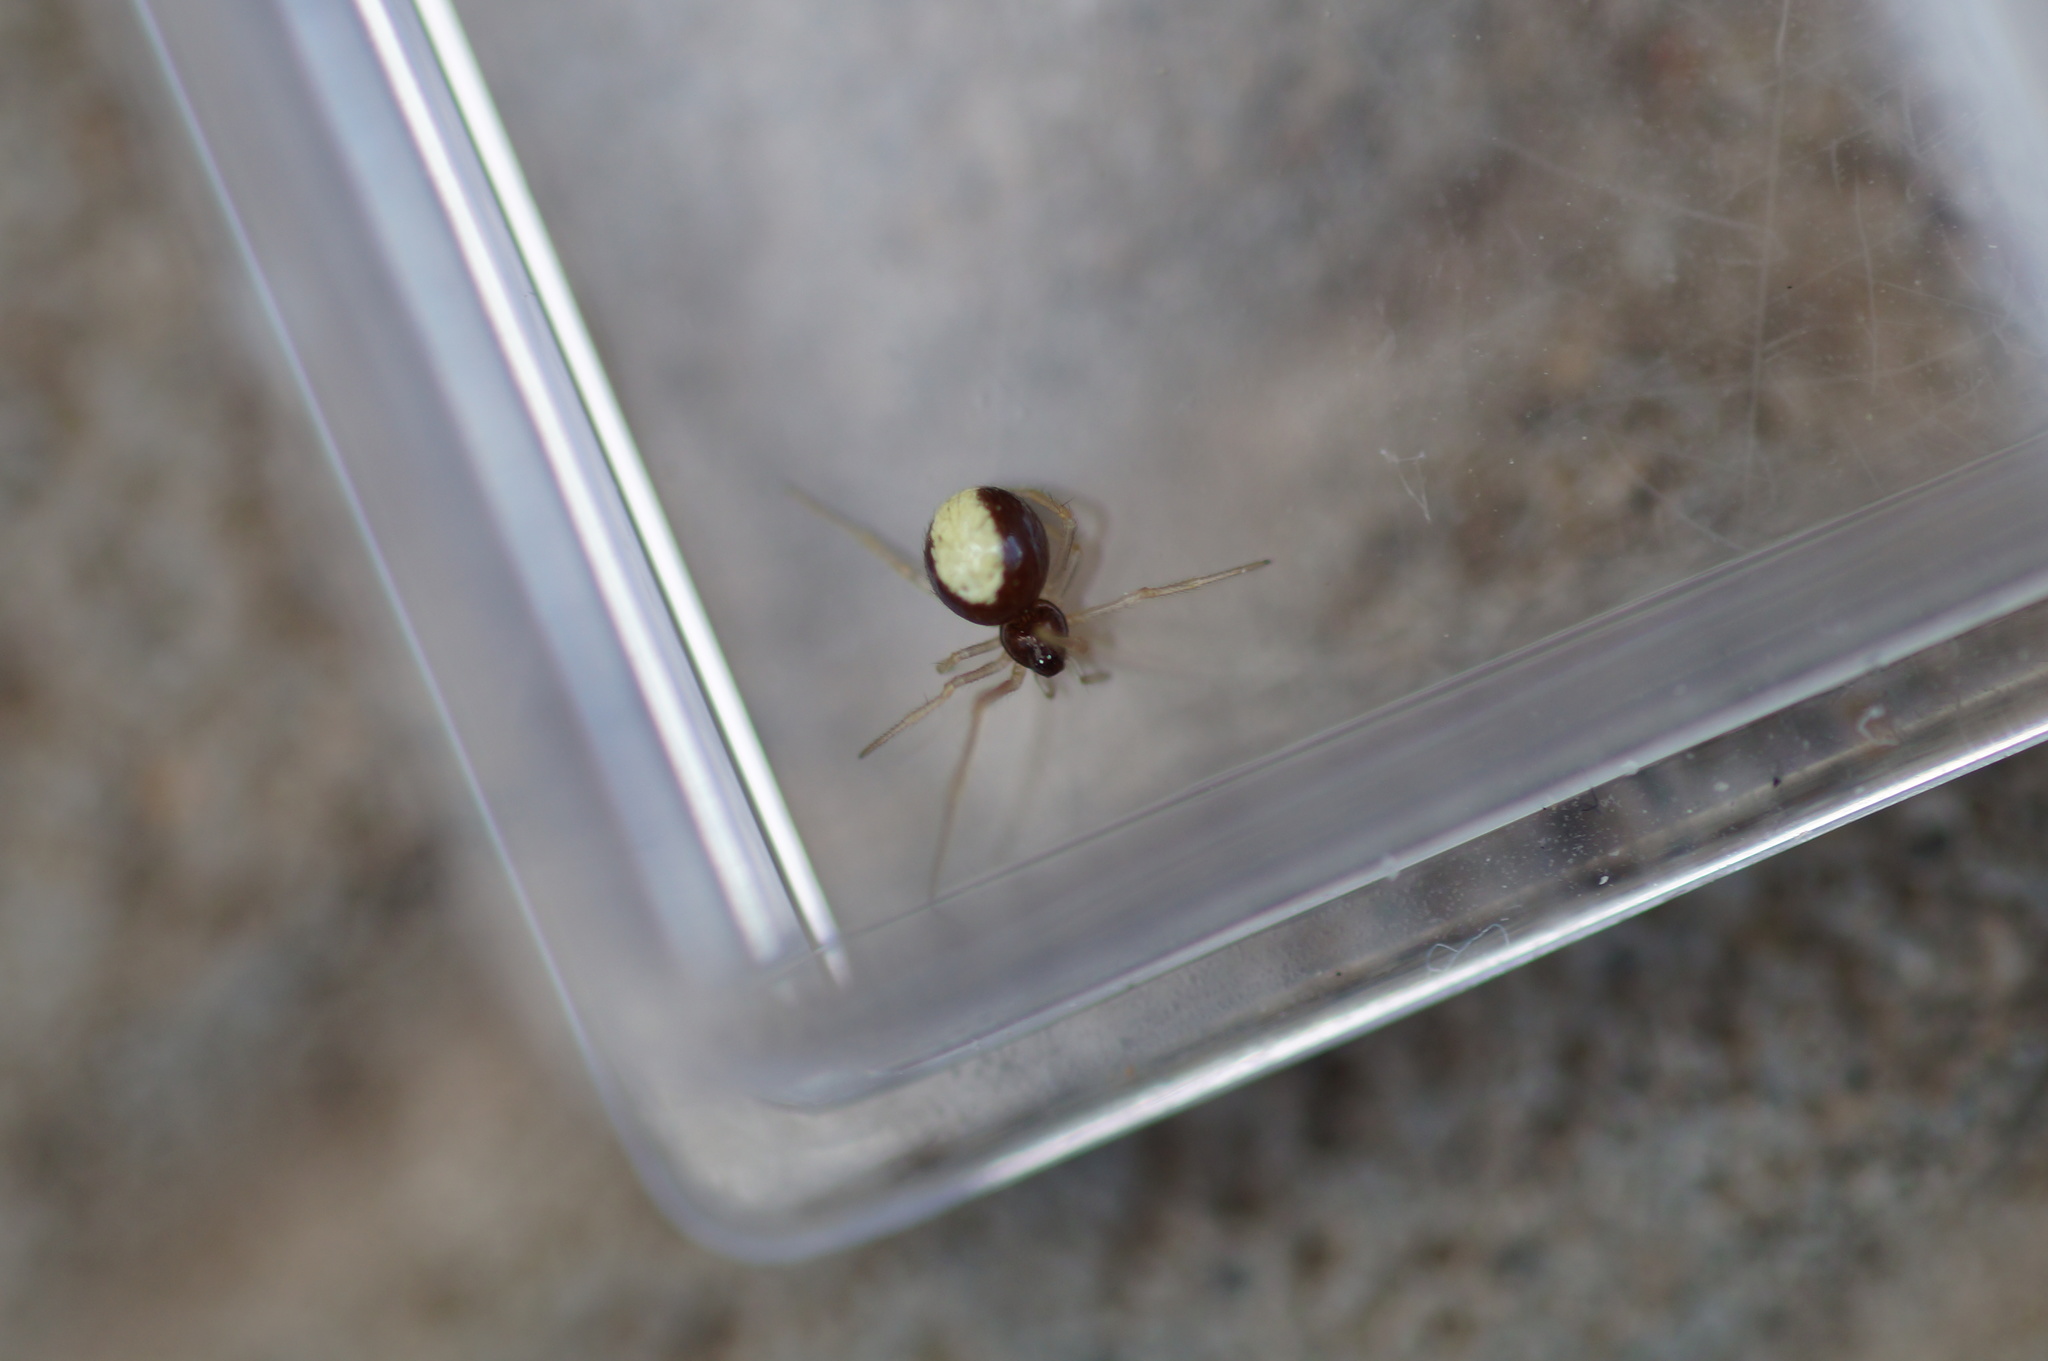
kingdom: Animalia
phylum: Arthropoda
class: Arachnida
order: Araneae
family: Theridiidae
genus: Neottiura
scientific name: Neottiura bimaculata
